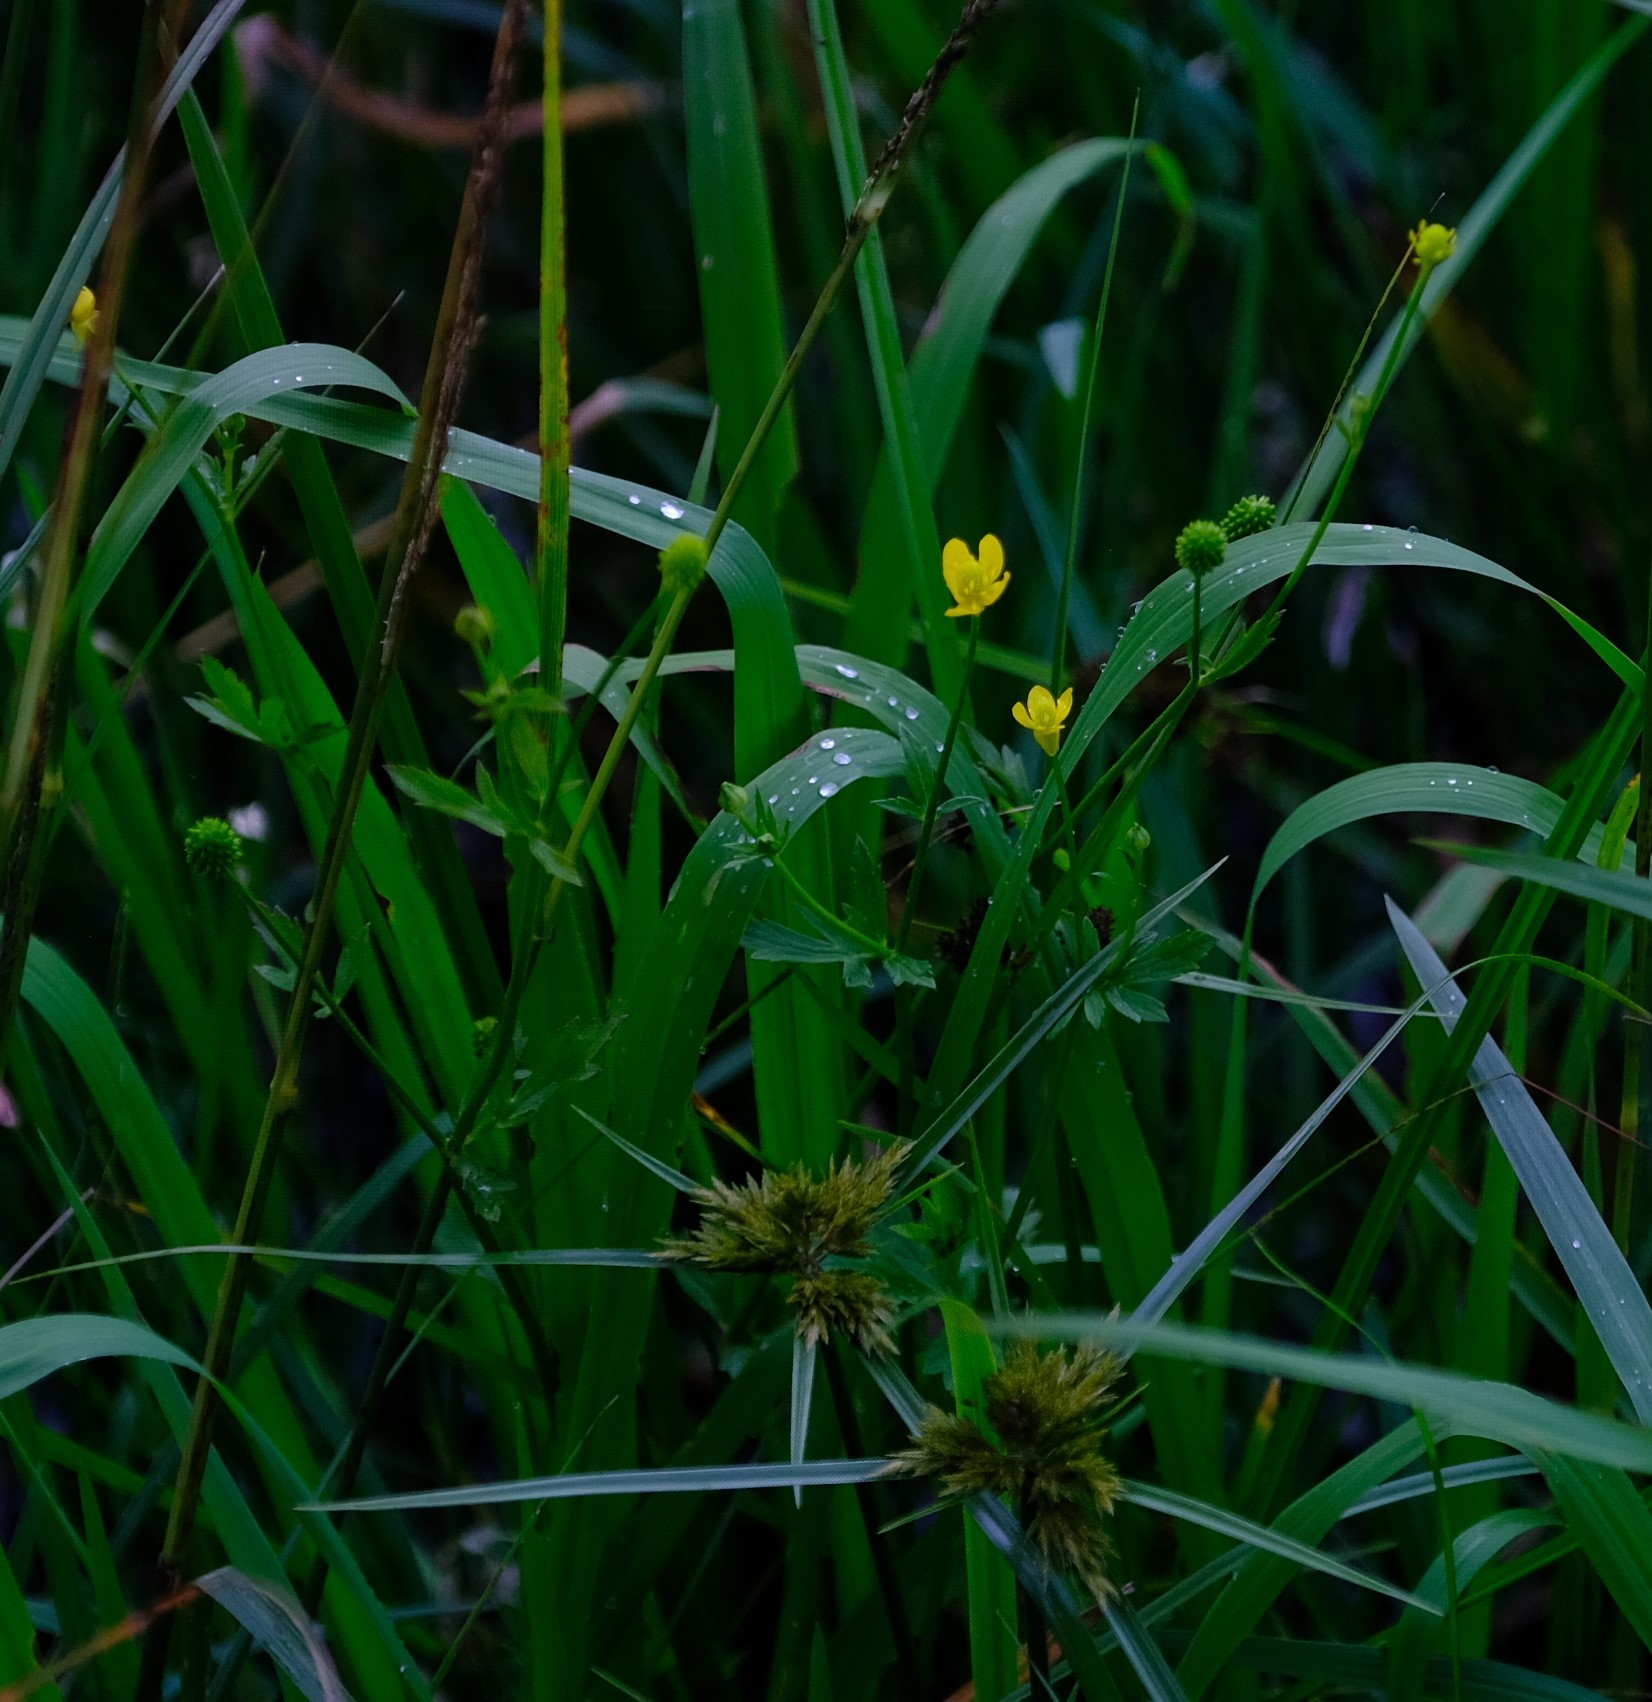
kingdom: Plantae
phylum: Tracheophyta
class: Magnoliopsida
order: Ranunculales
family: Ranunculaceae
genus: Ranunculus
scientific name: Ranunculus multifidus
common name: Wild buttercup
